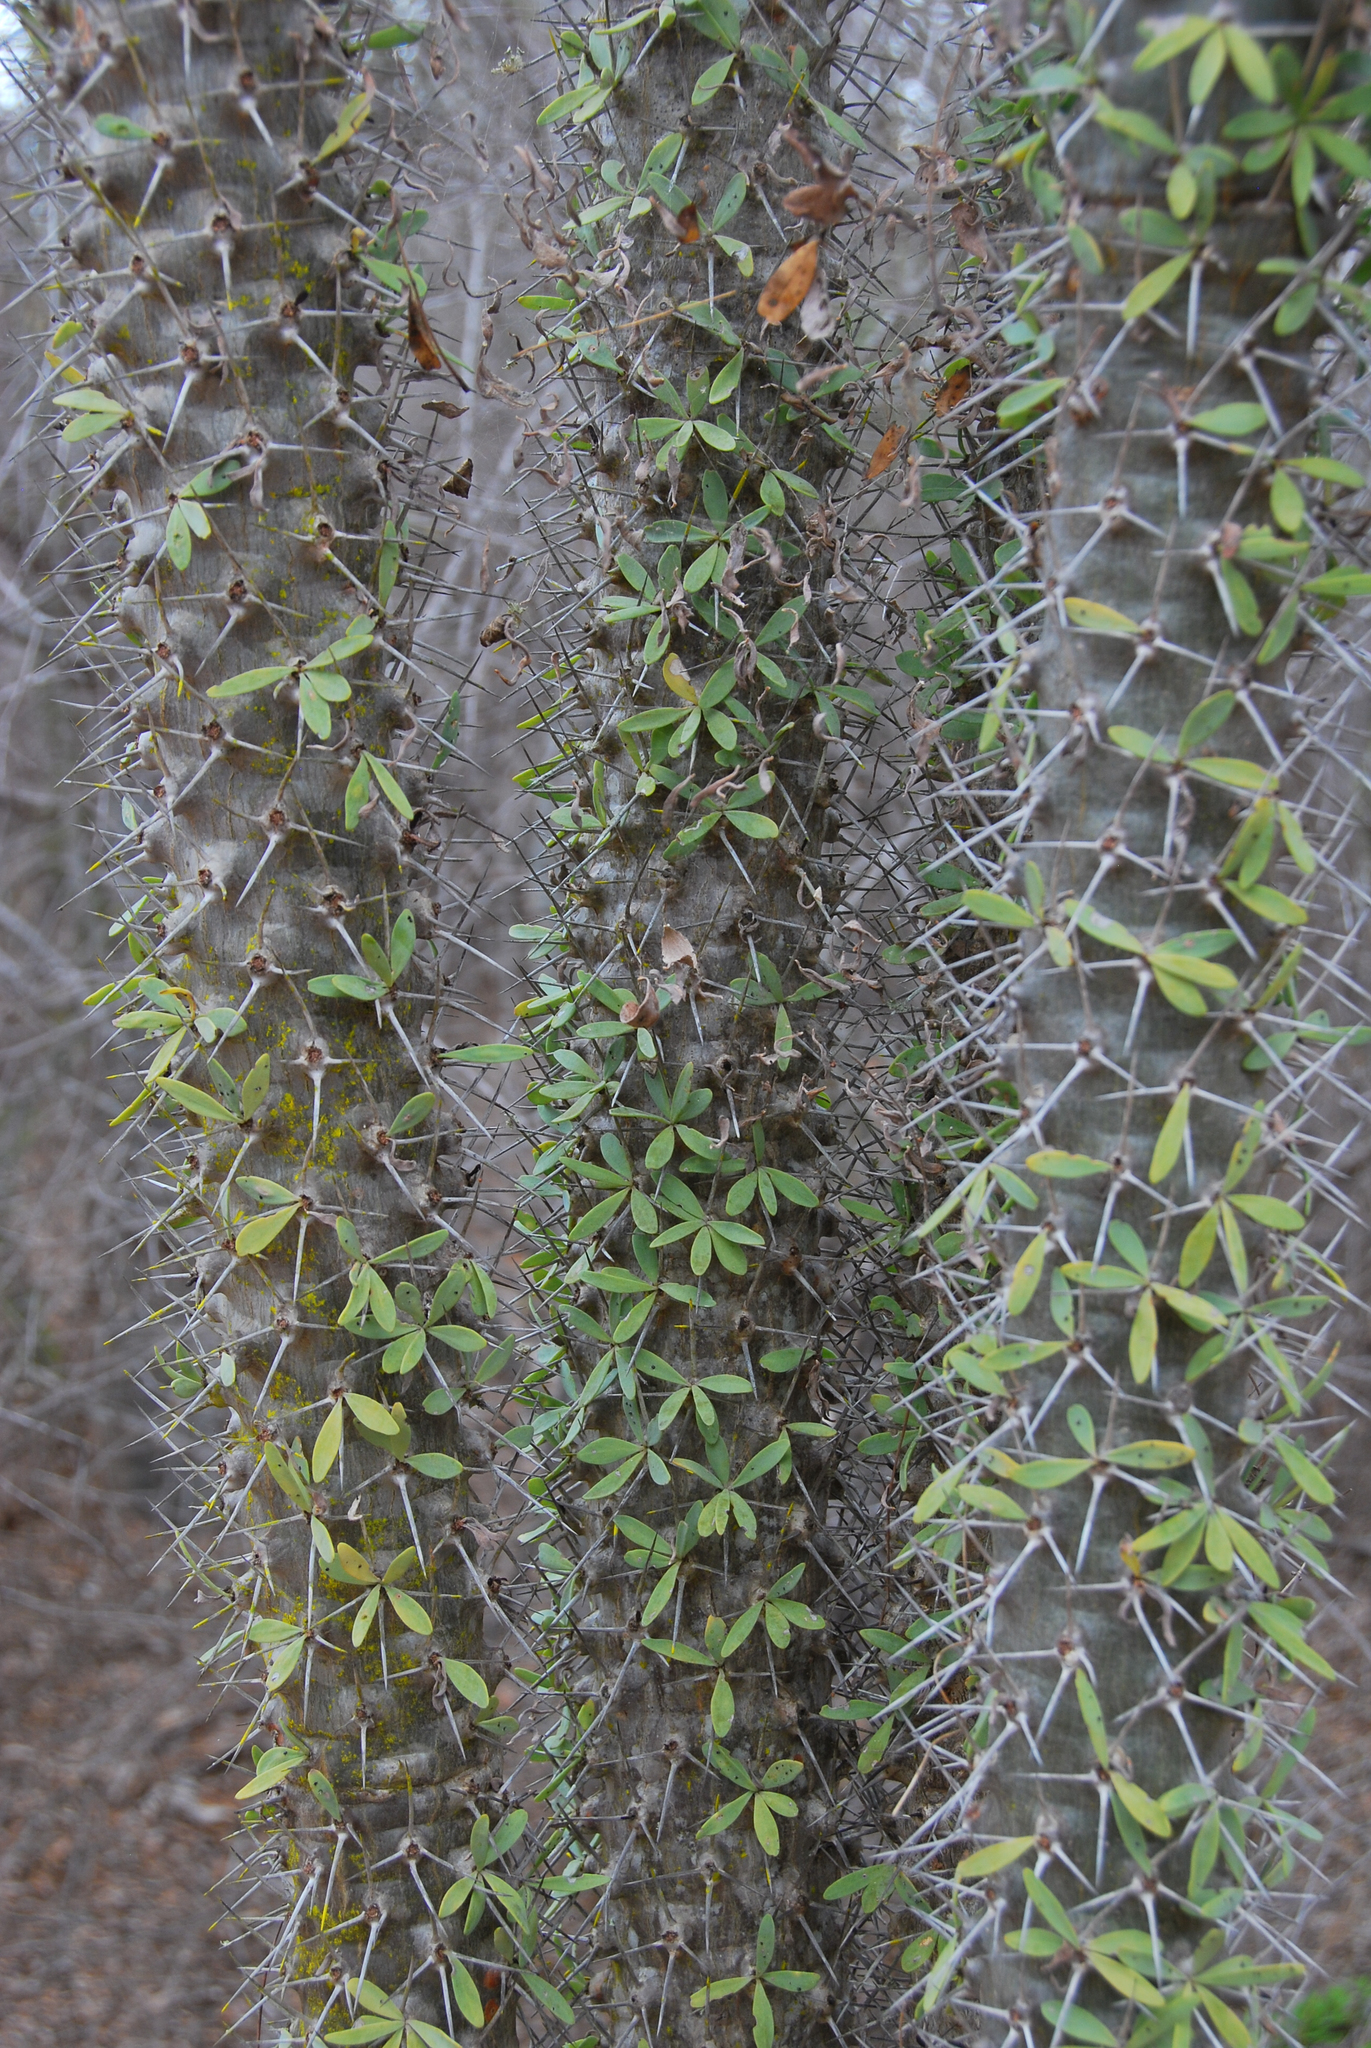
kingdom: Plantae
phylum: Tracheophyta
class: Magnoliopsida
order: Caryophyllales
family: Didiereaceae
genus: Didierea
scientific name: Didierea trollii
